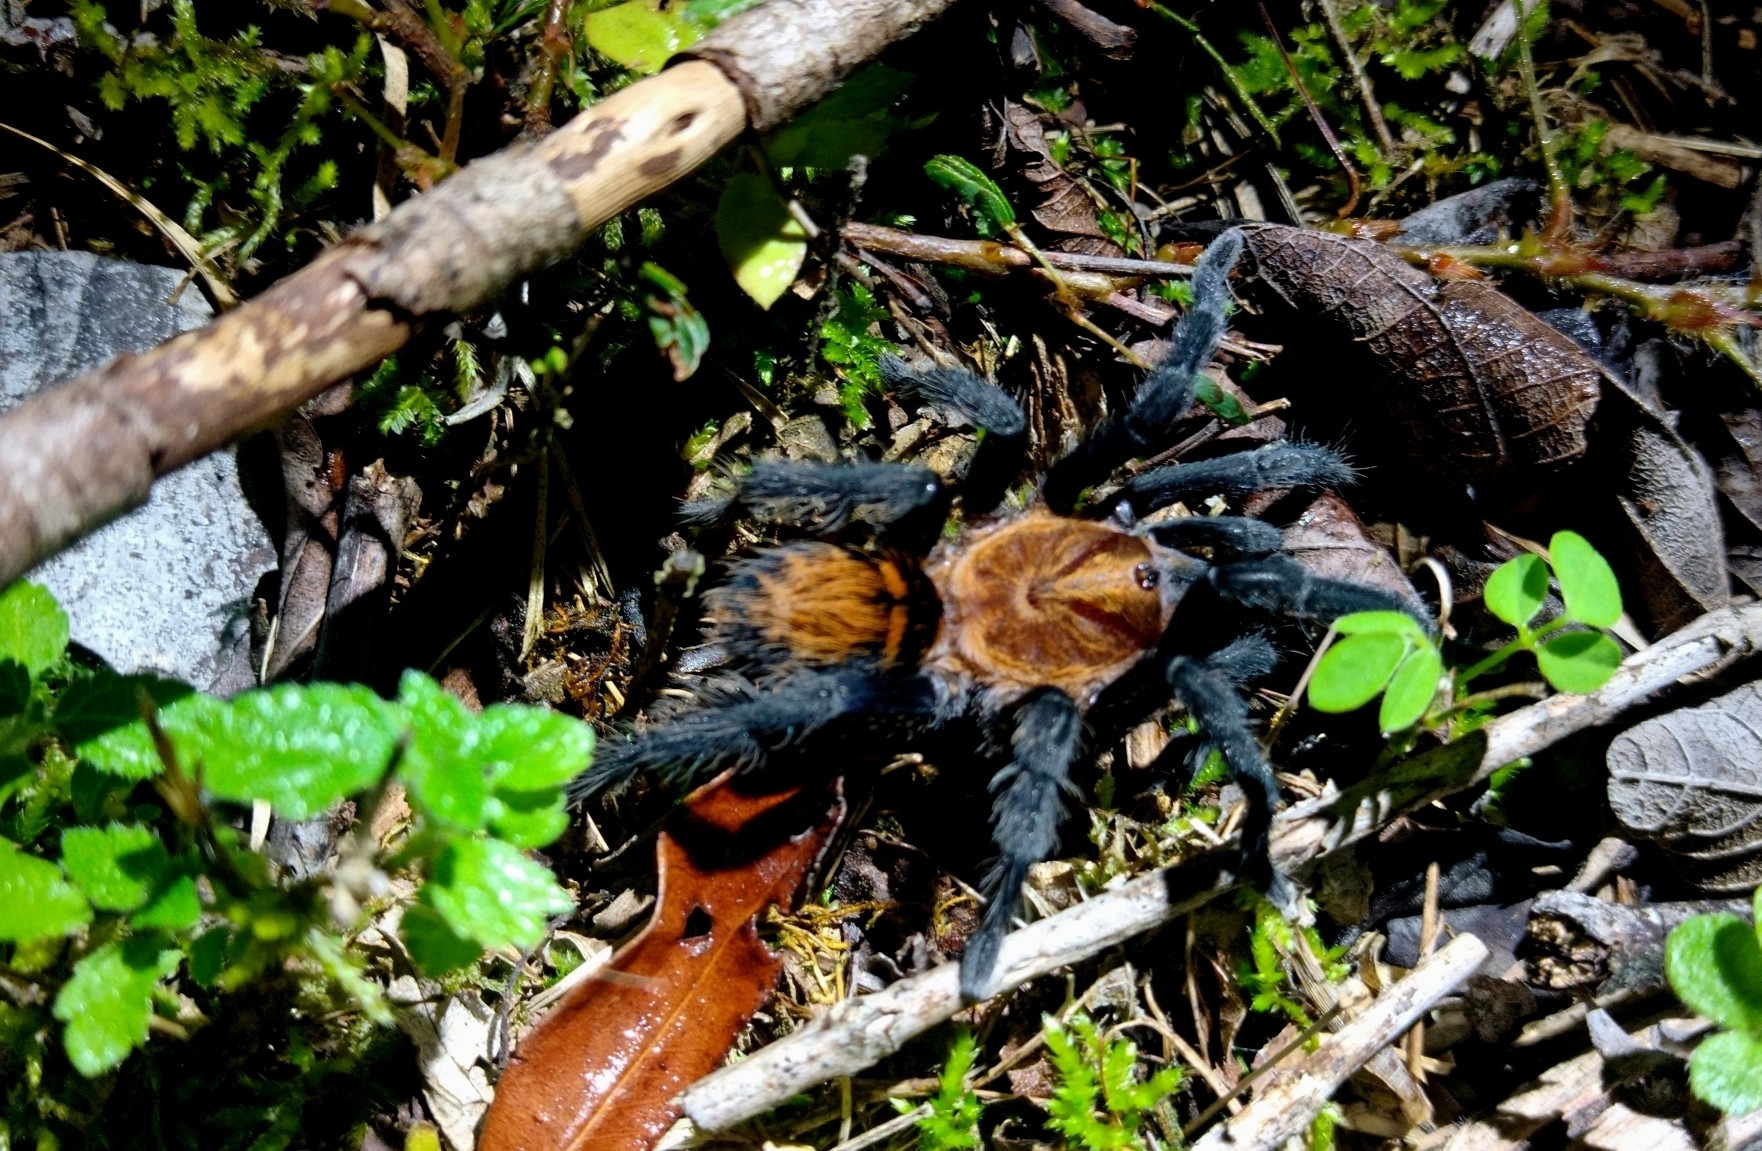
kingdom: Animalia
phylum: Arthropoda
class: Arachnida
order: Araneae
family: Theraphosidae
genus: Davus
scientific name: Davus ruficeps
